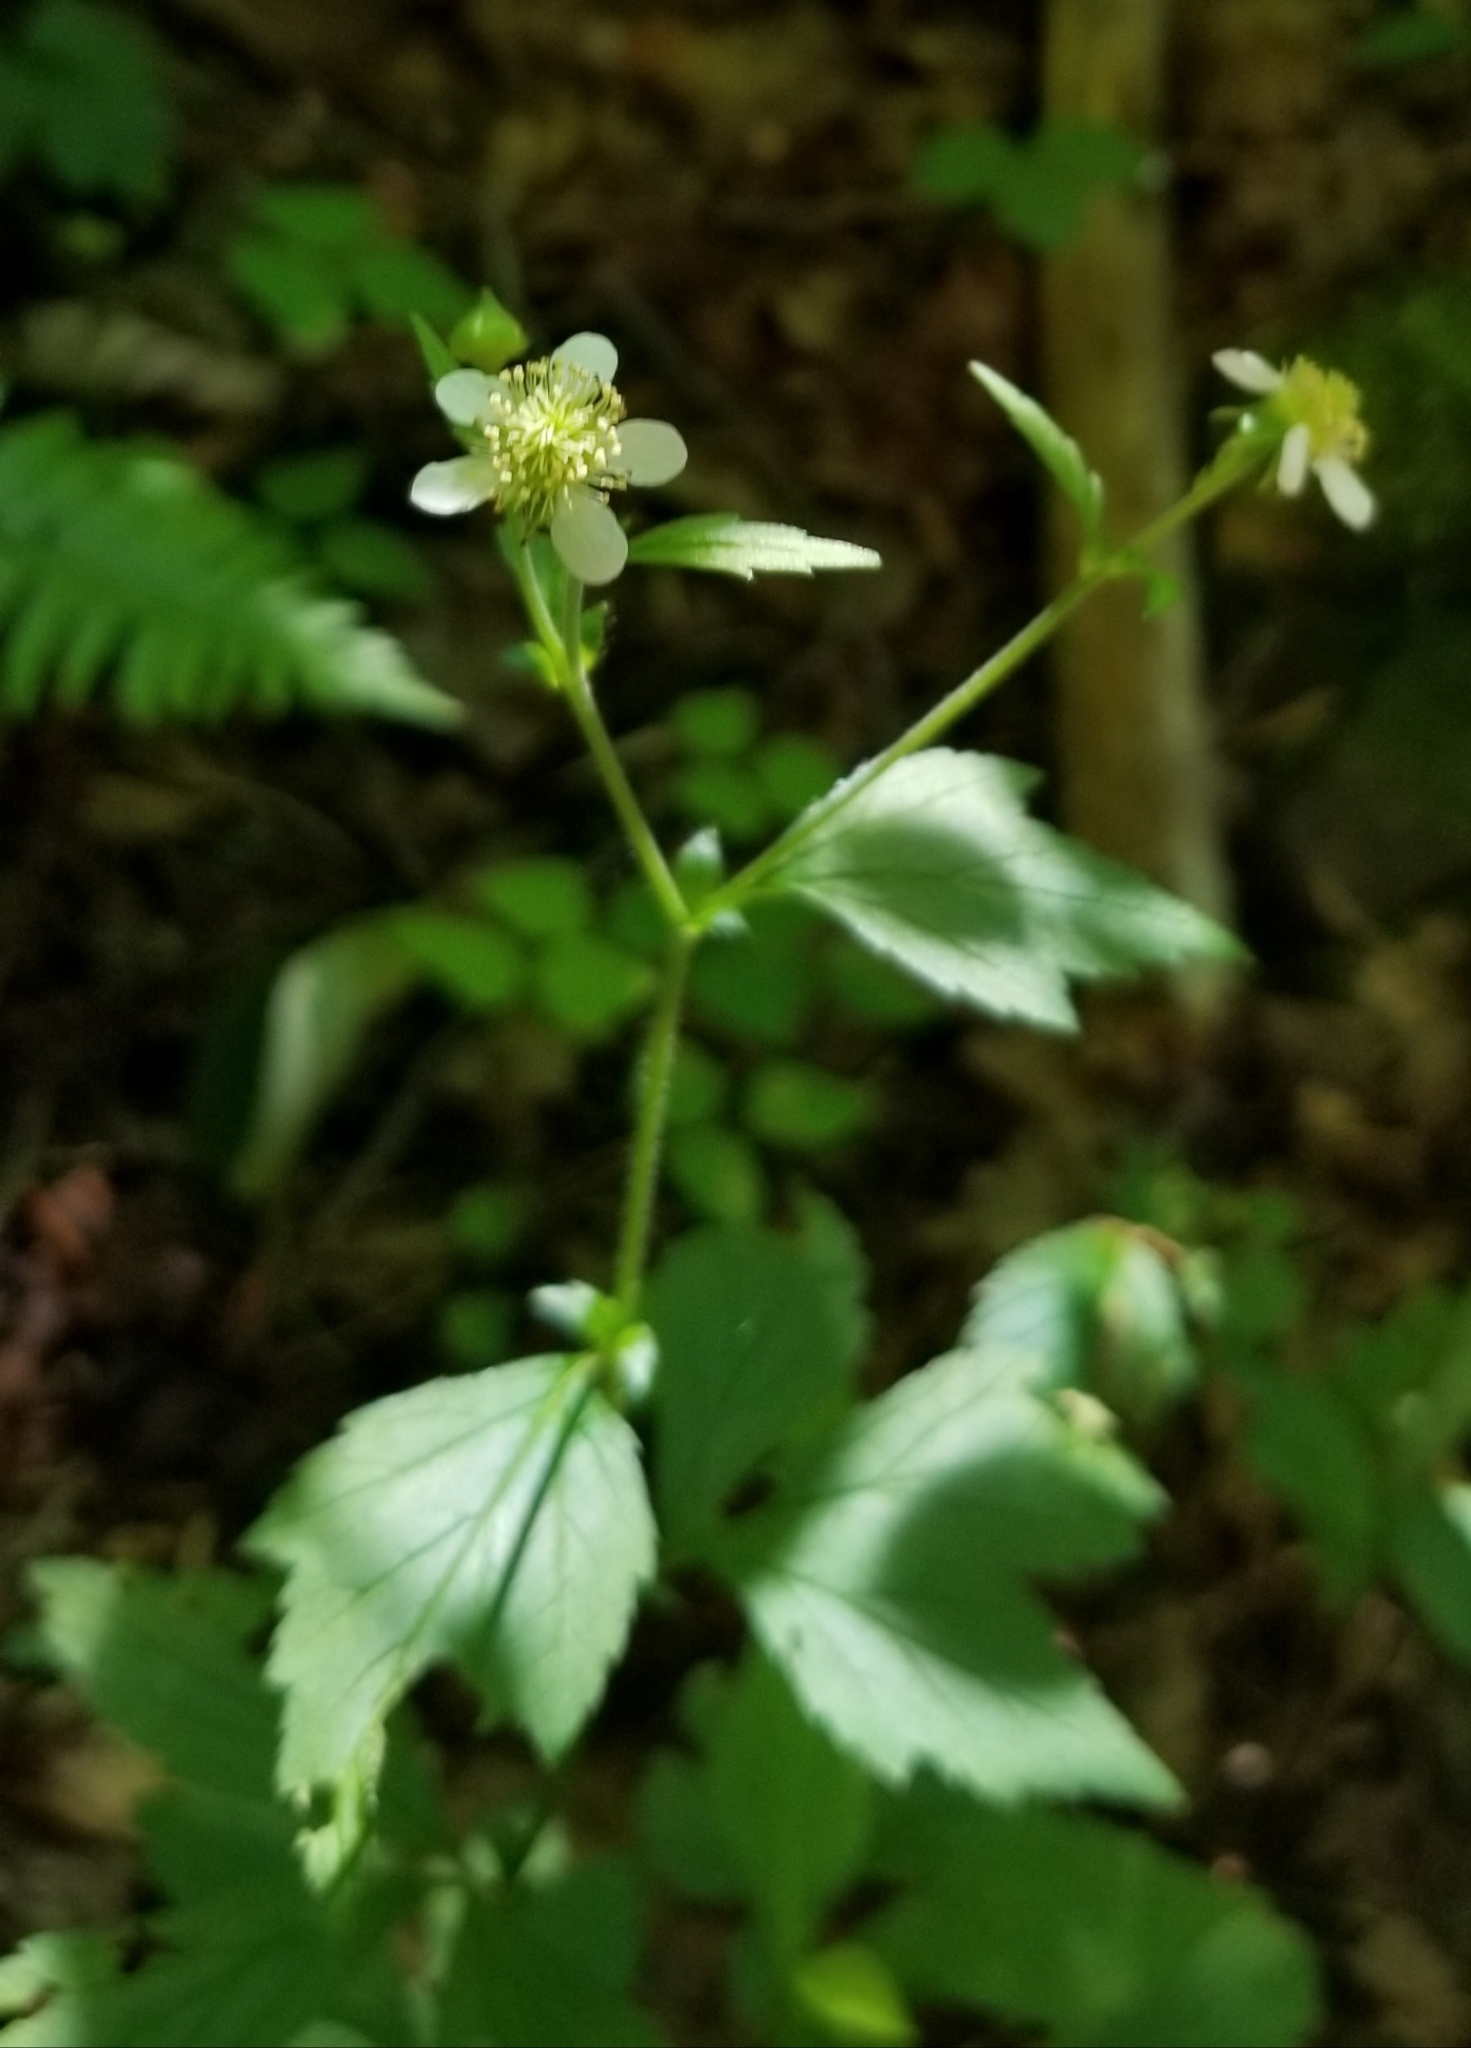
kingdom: Plantae
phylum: Tracheophyta
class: Magnoliopsida
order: Rosales
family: Rosaceae
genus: Geum
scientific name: Geum canadense
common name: White avens
